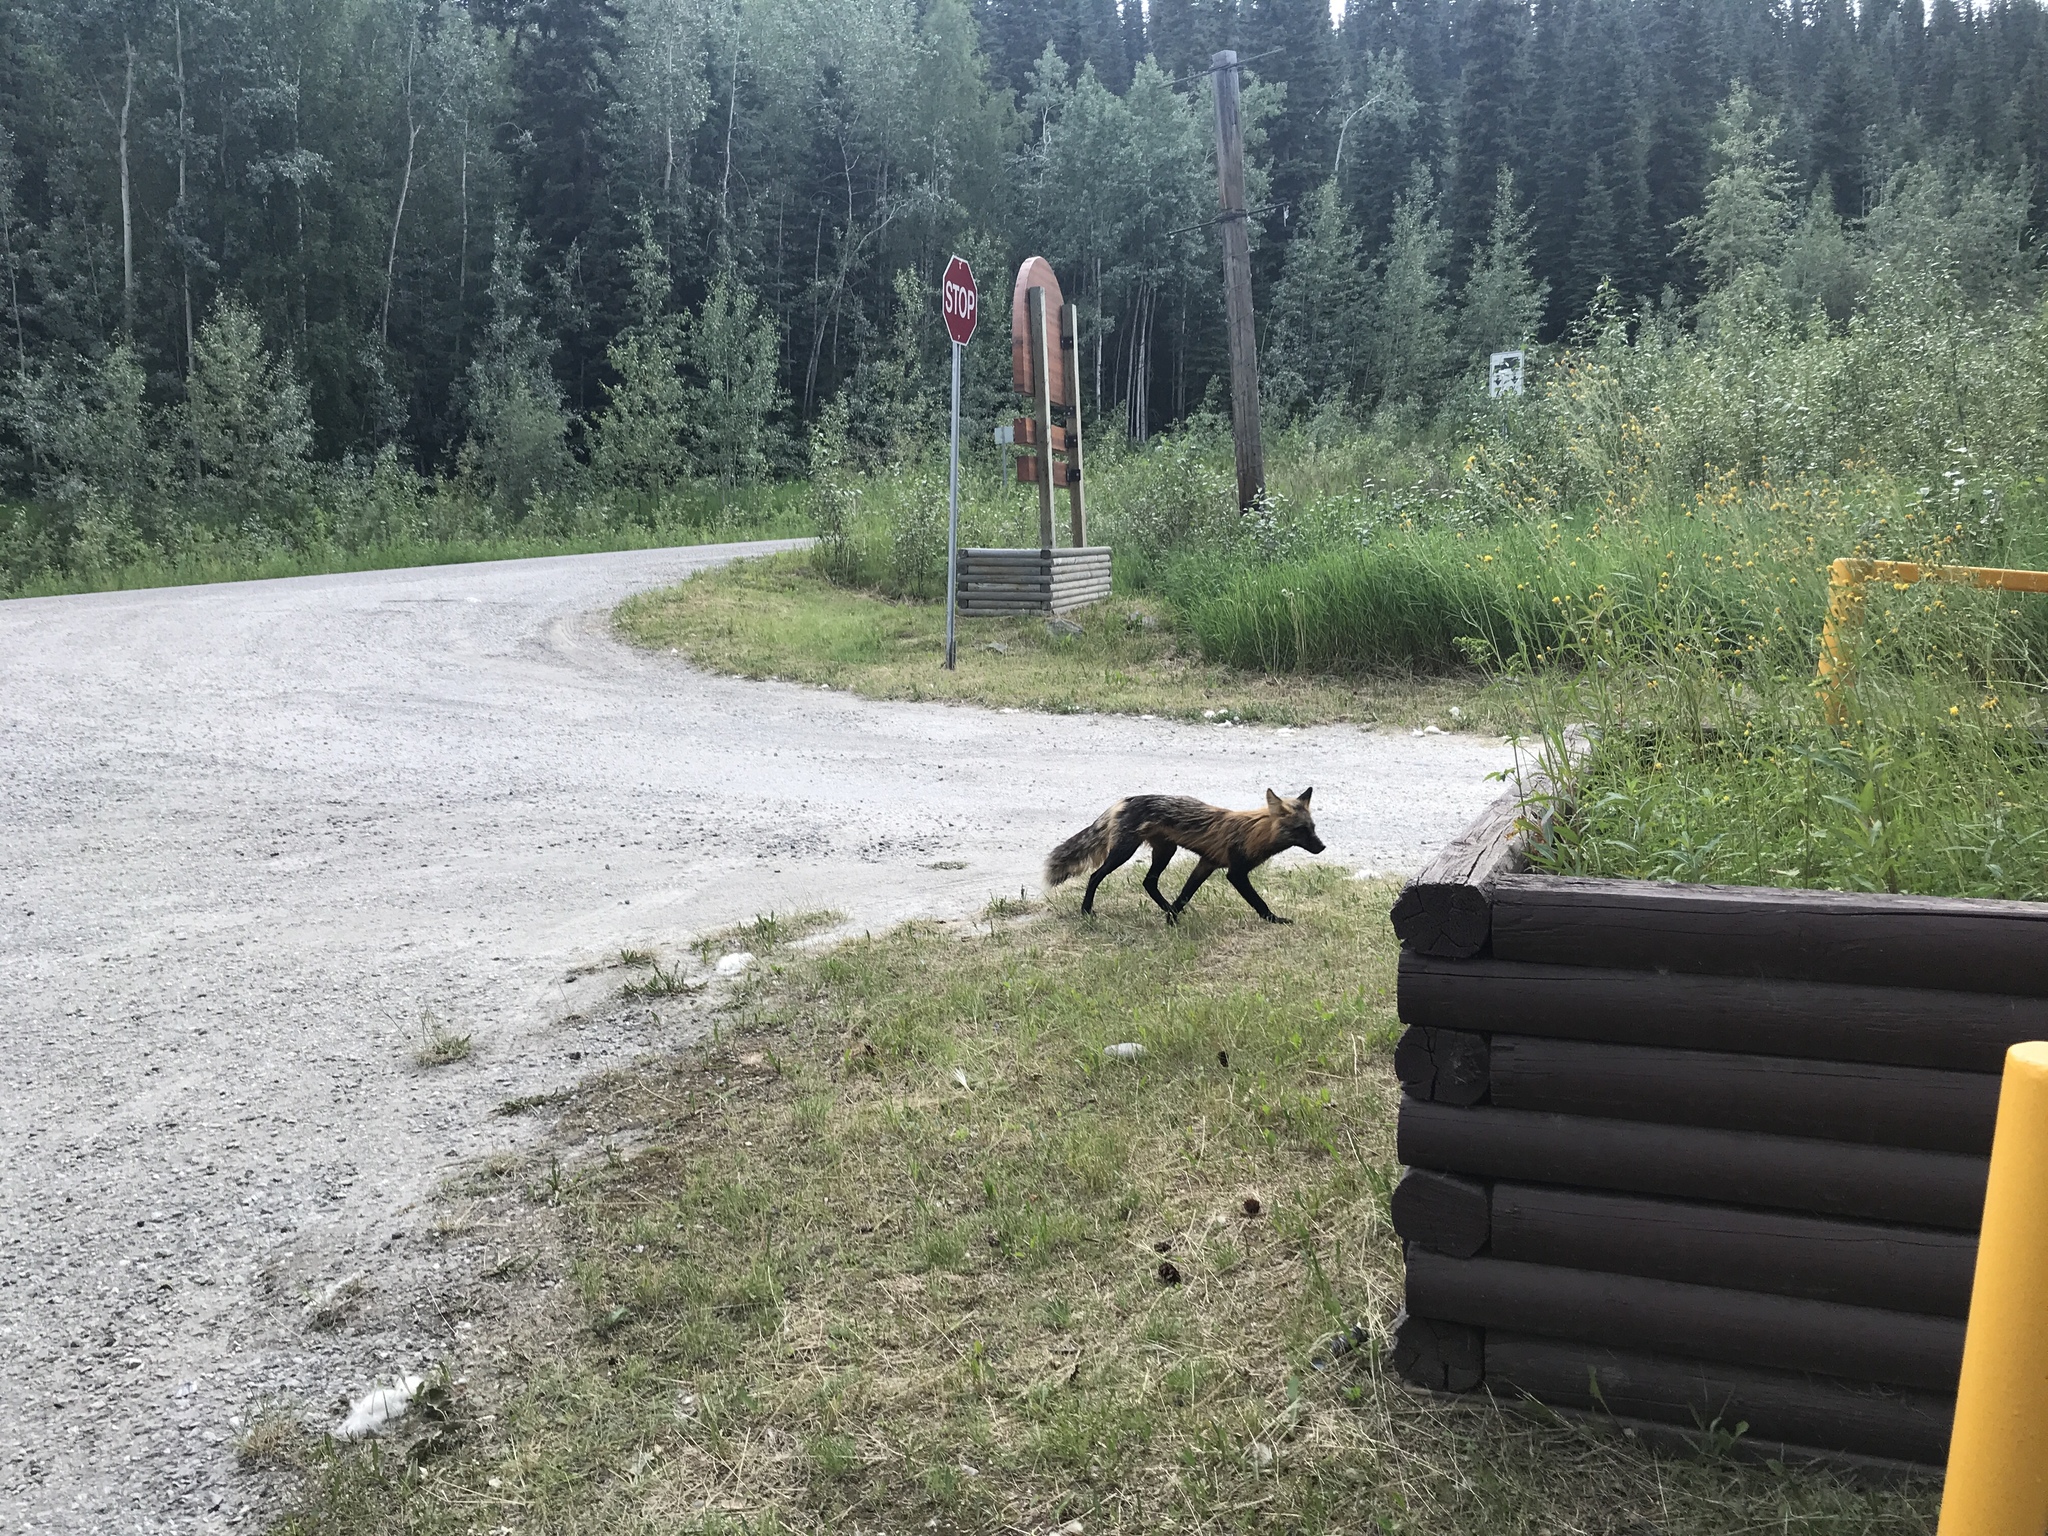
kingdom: Animalia
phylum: Chordata
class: Mammalia
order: Carnivora
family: Canidae
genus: Vulpes
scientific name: Vulpes vulpes
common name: Red fox
